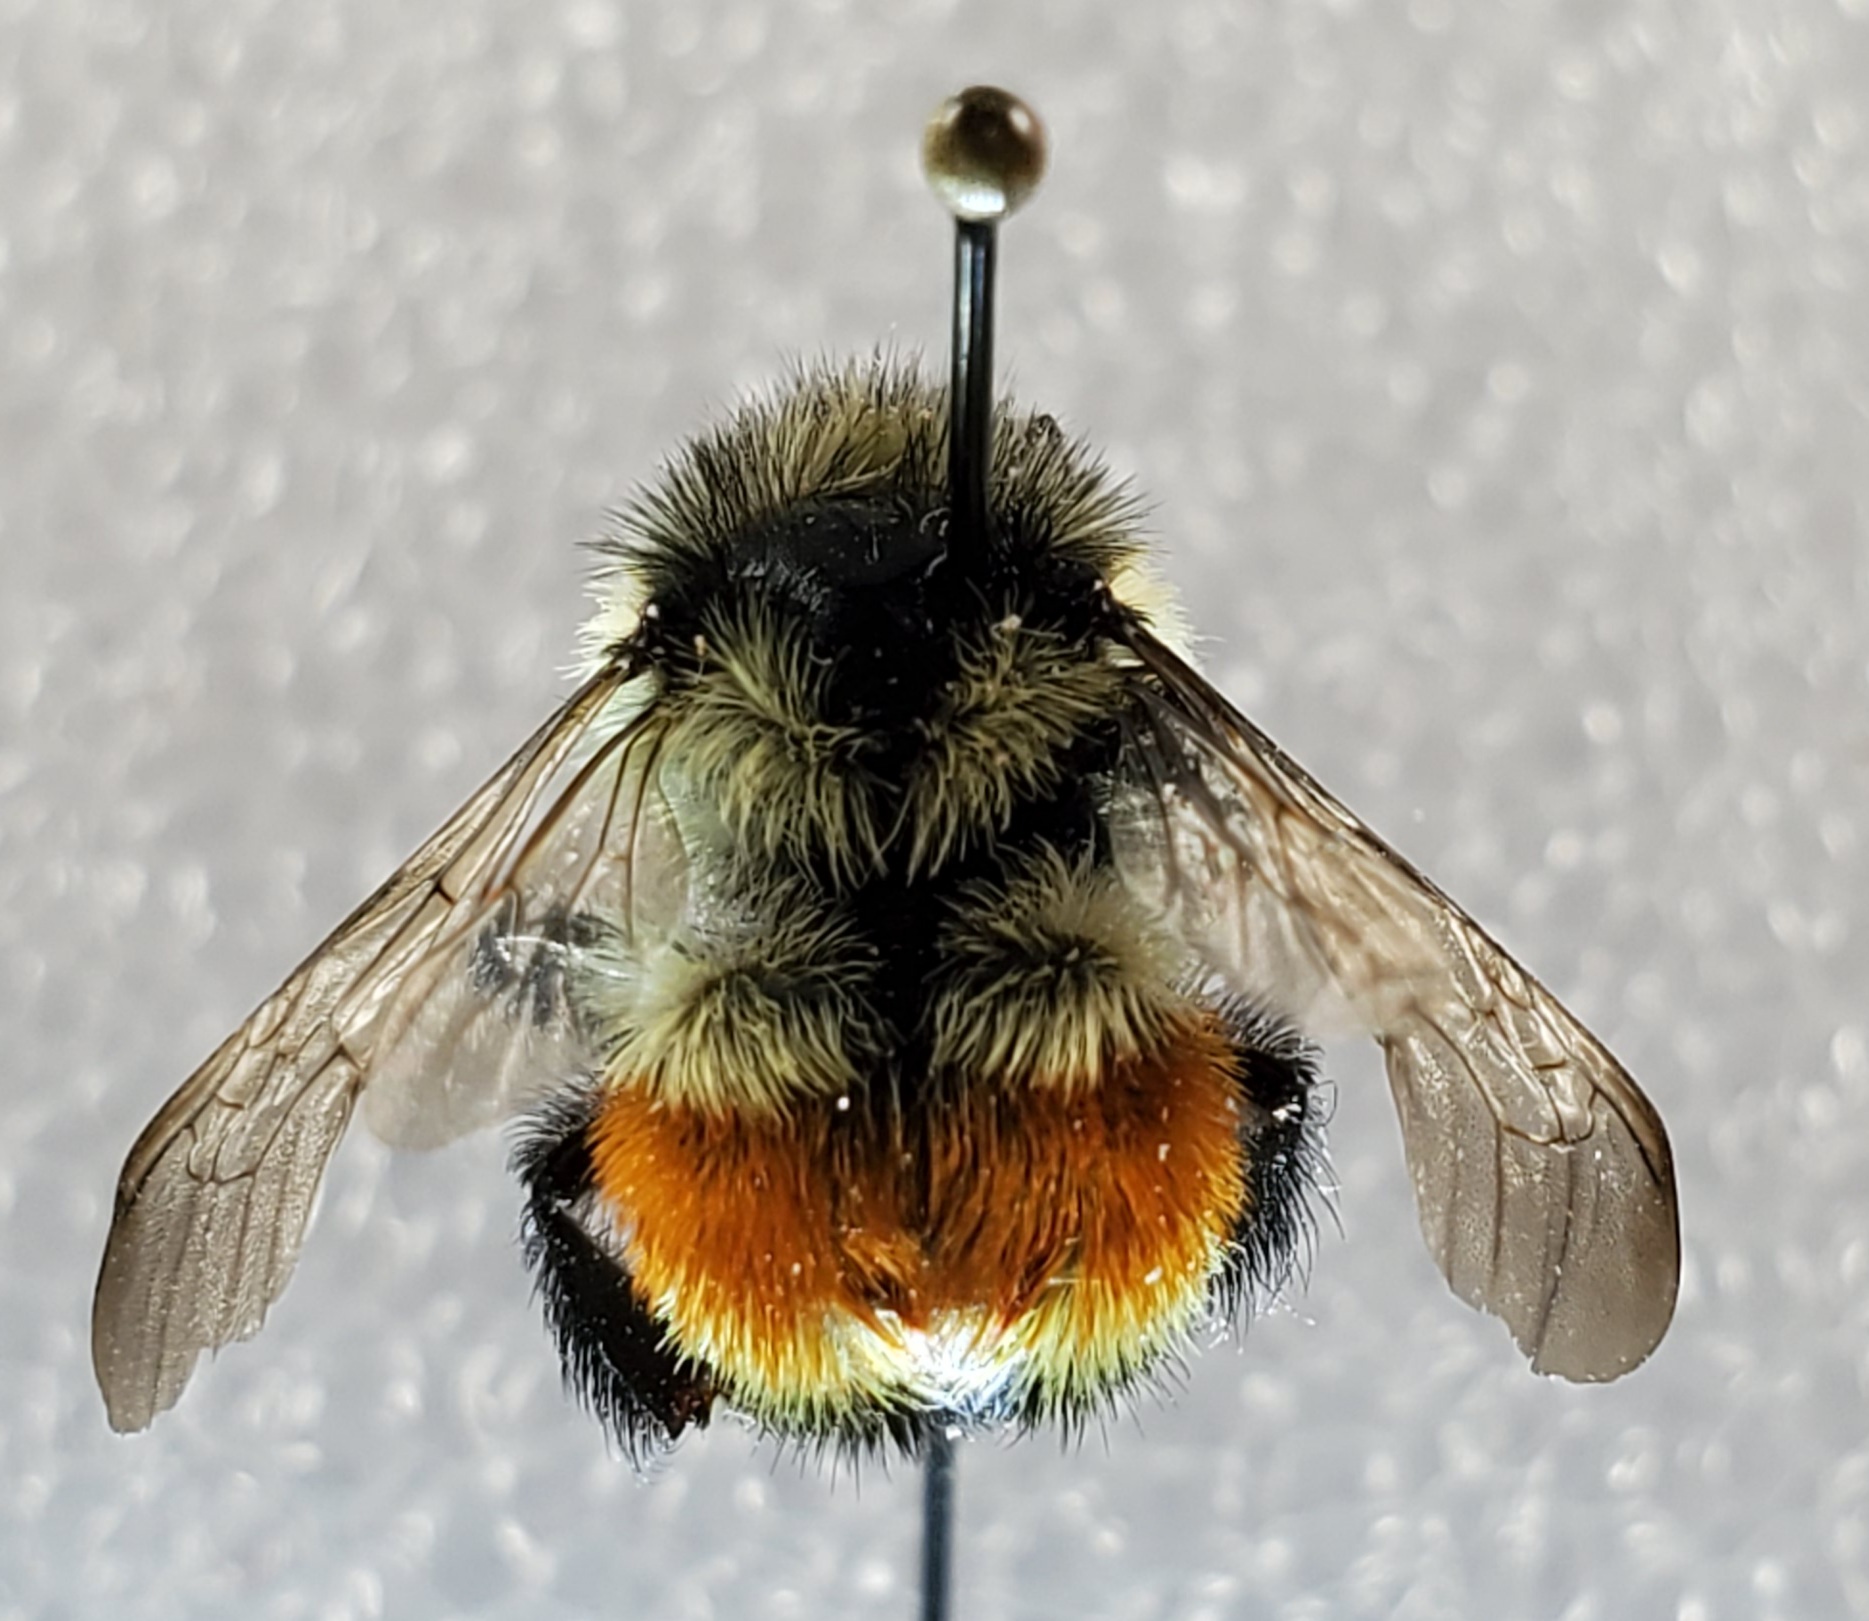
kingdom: Animalia
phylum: Arthropoda
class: Insecta
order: Hymenoptera
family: Apidae
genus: Bombus
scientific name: Bombus ternarius
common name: Tri-colored bumble bee
